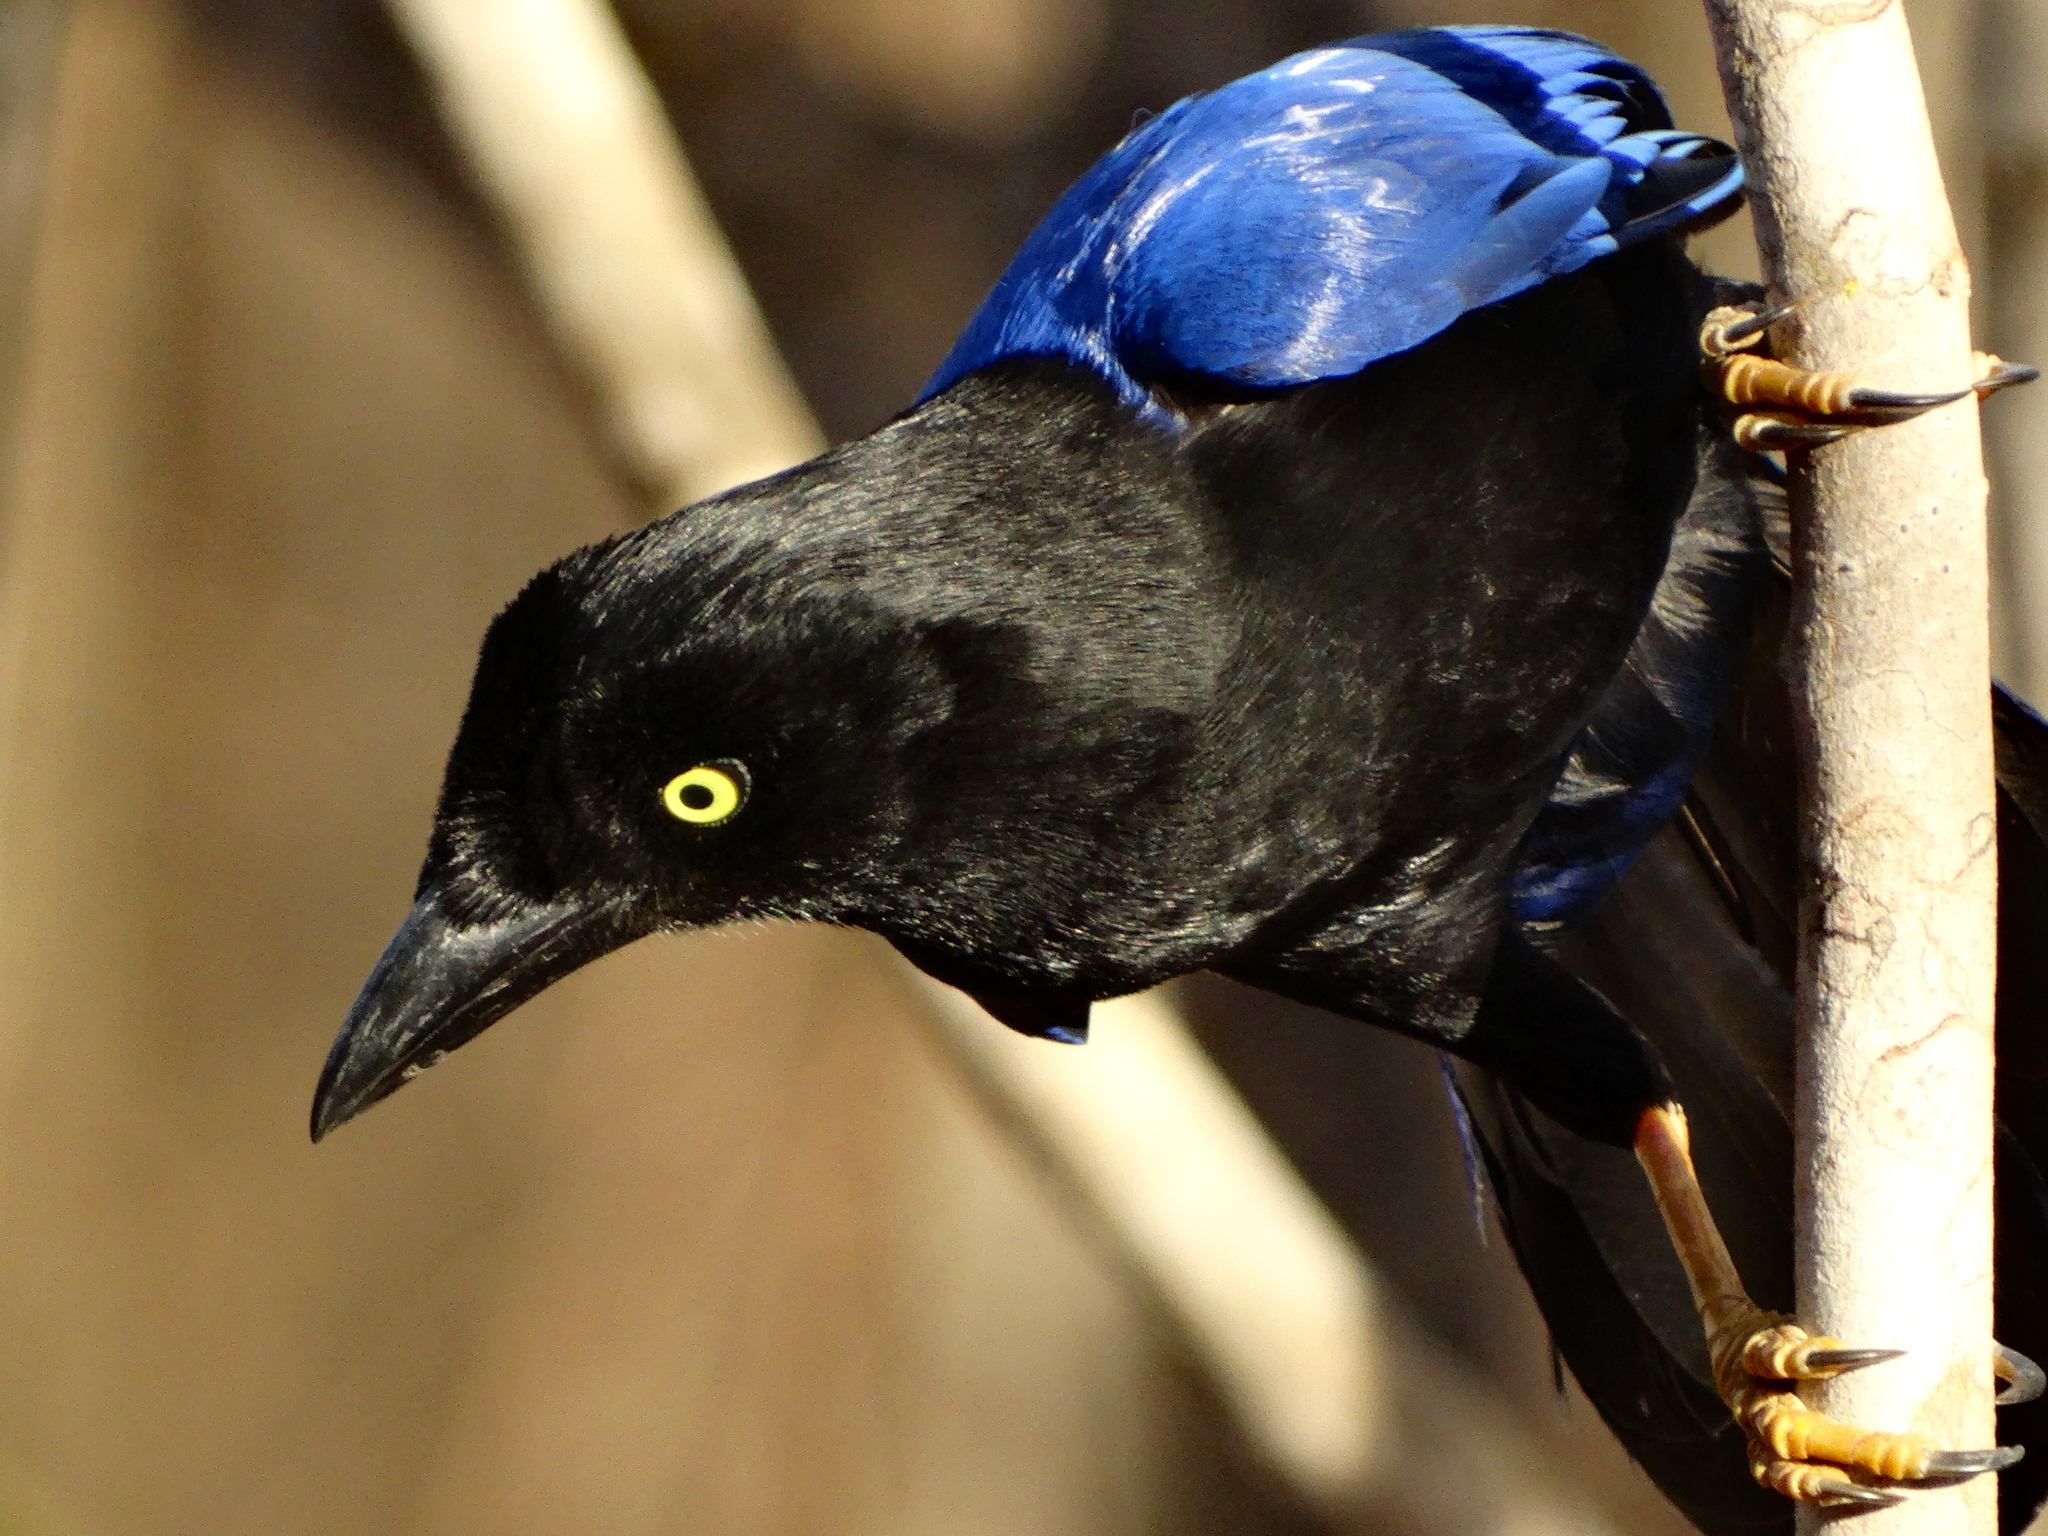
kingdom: Animalia
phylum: Chordata
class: Aves
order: Passeriformes
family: Corvidae
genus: Cyanocorax
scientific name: Cyanocorax beecheii
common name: Purplish-backed jay
